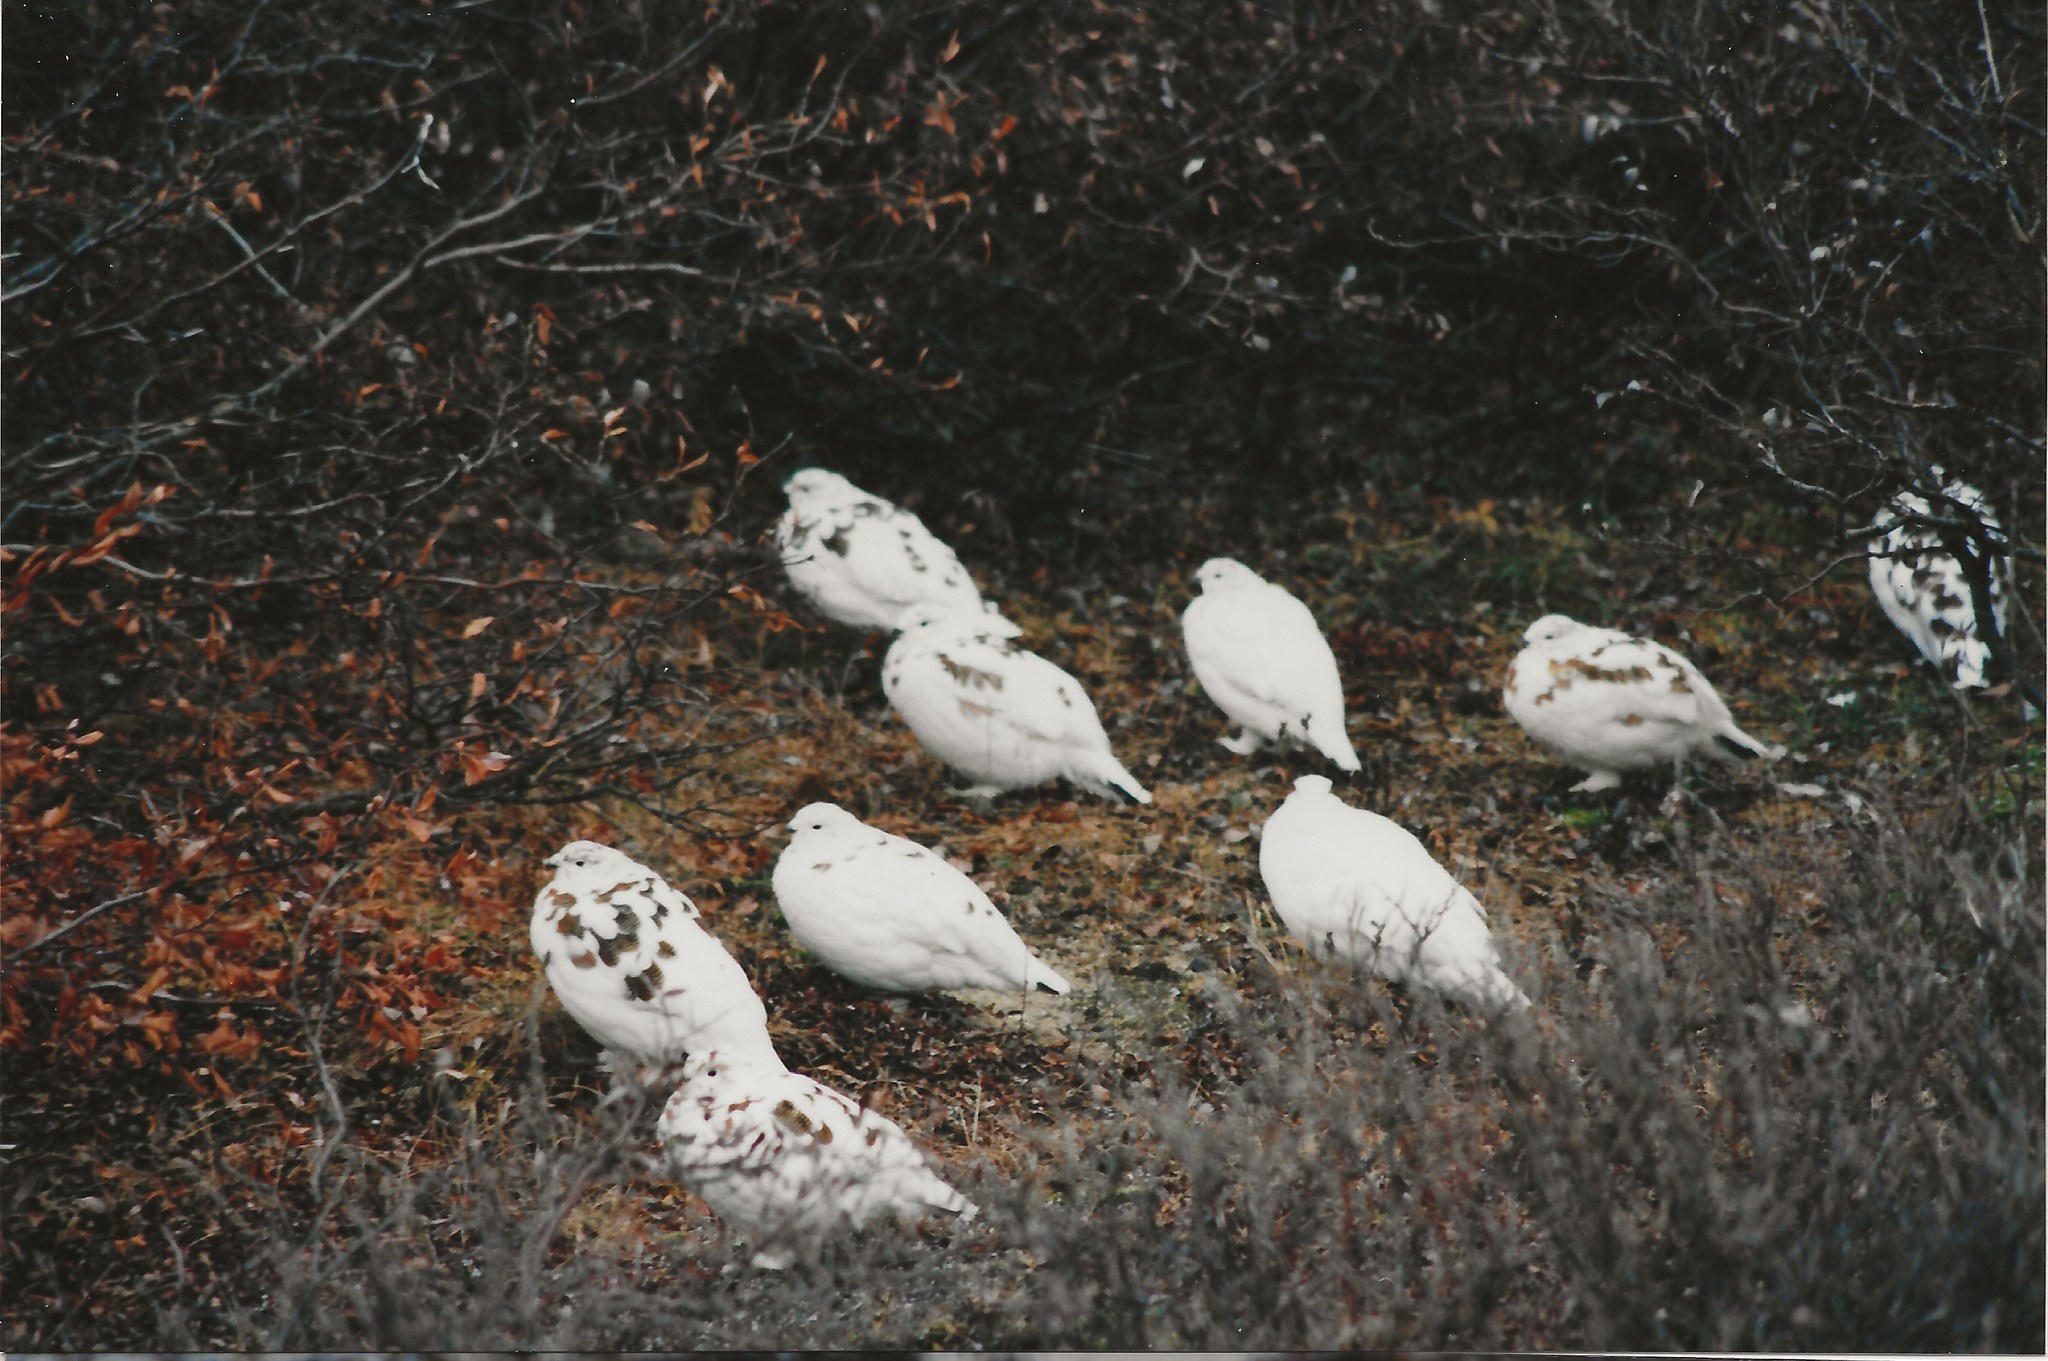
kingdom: Animalia
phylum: Chordata
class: Aves
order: Galliformes
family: Phasianidae
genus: Lagopus
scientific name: Lagopus lagopus
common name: Willow ptarmigan
